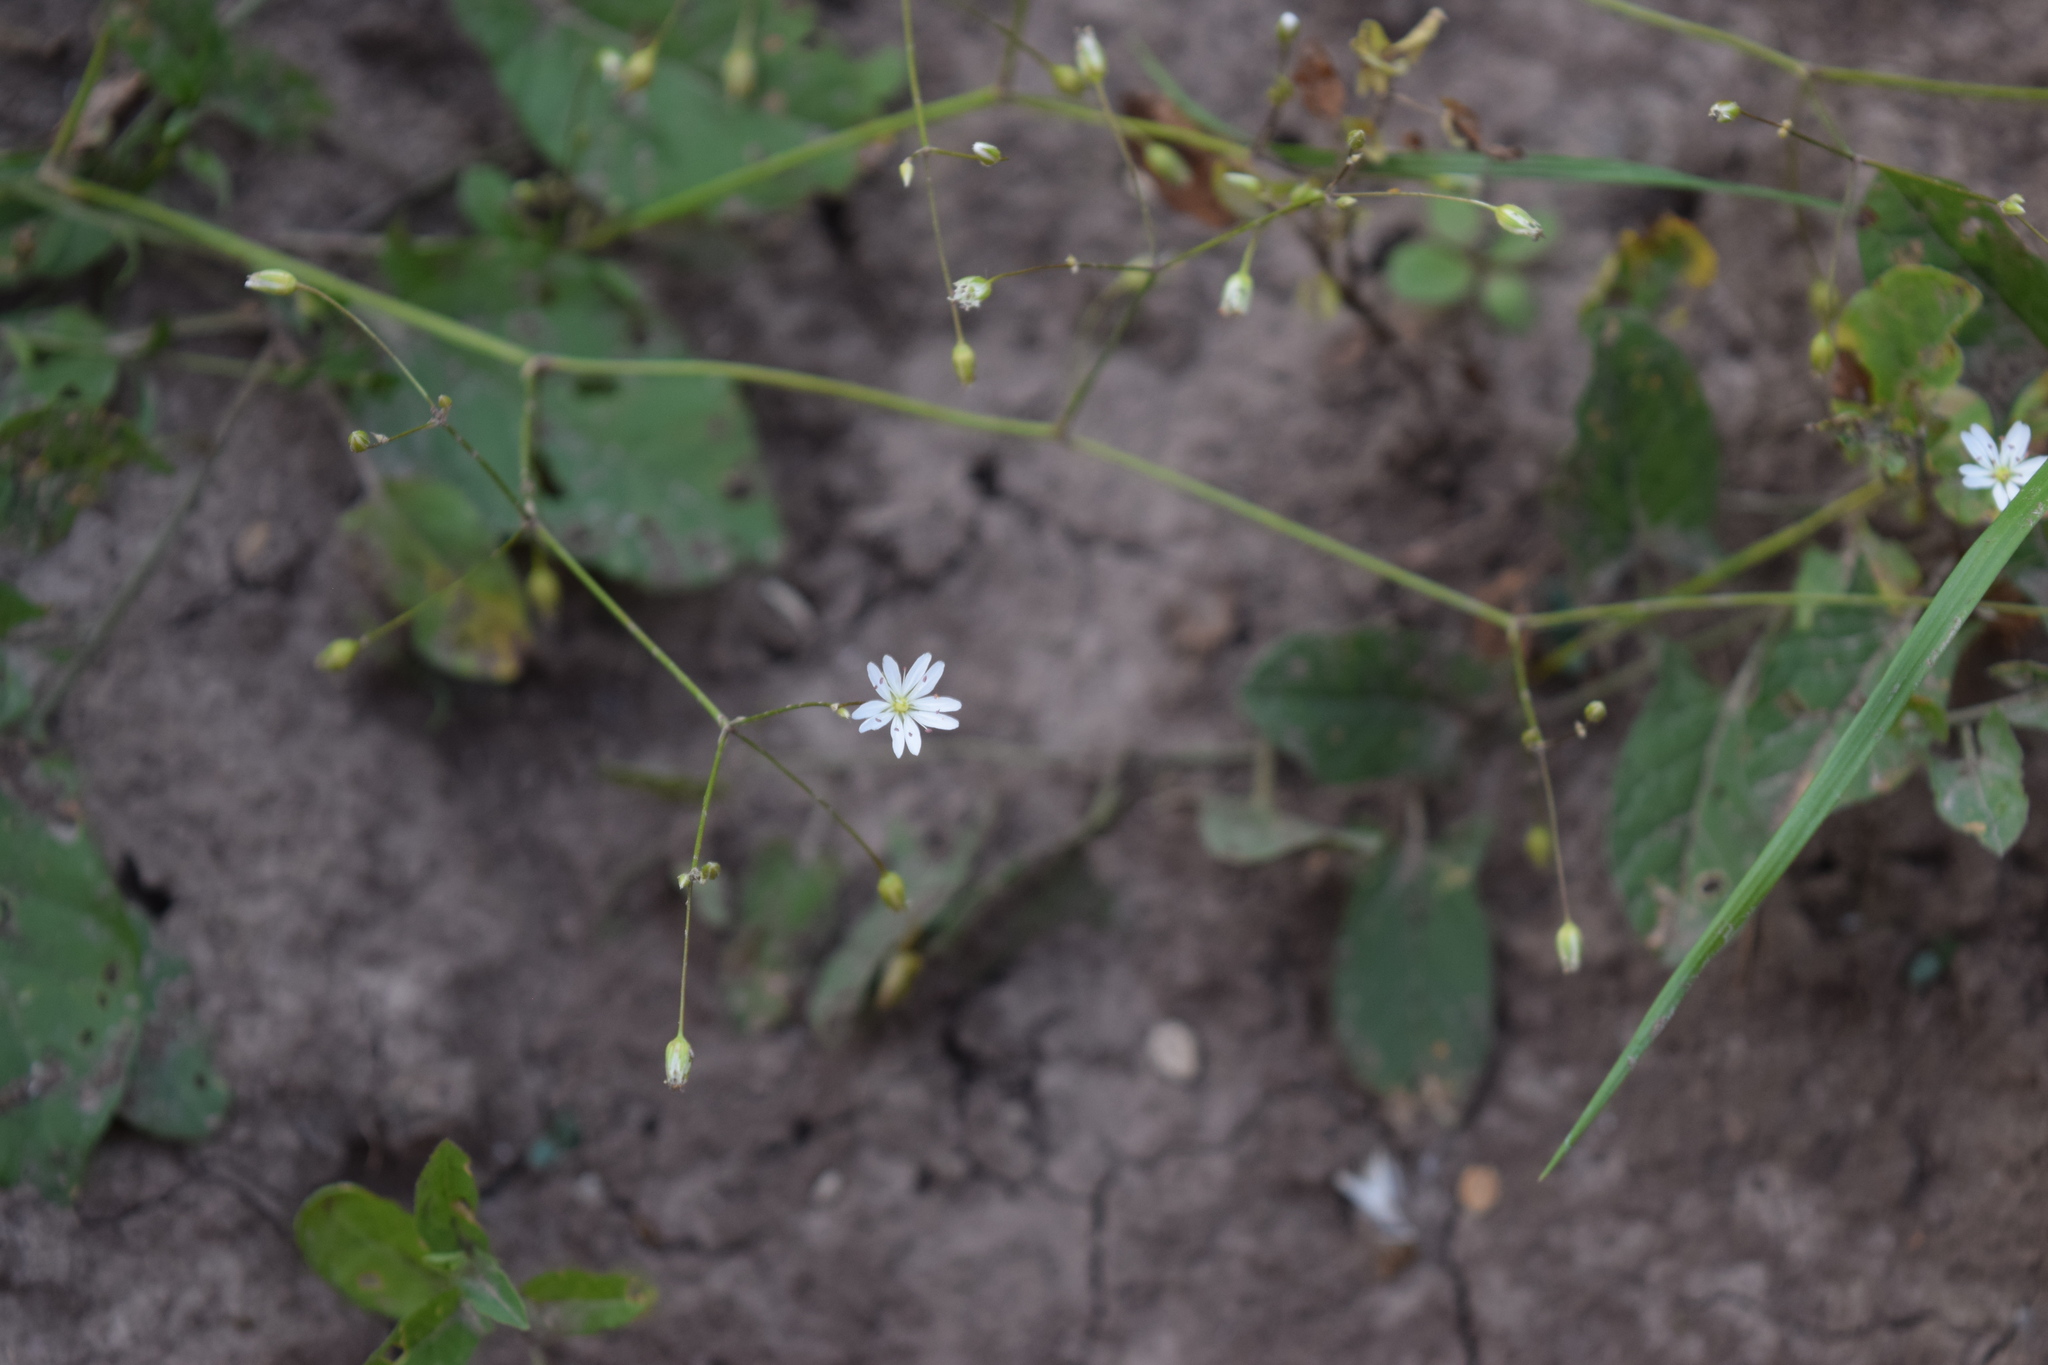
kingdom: Plantae
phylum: Tracheophyta
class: Magnoliopsida
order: Caryophyllales
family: Caryophyllaceae
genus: Stellaria
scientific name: Stellaria graminea
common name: Grass-like starwort
